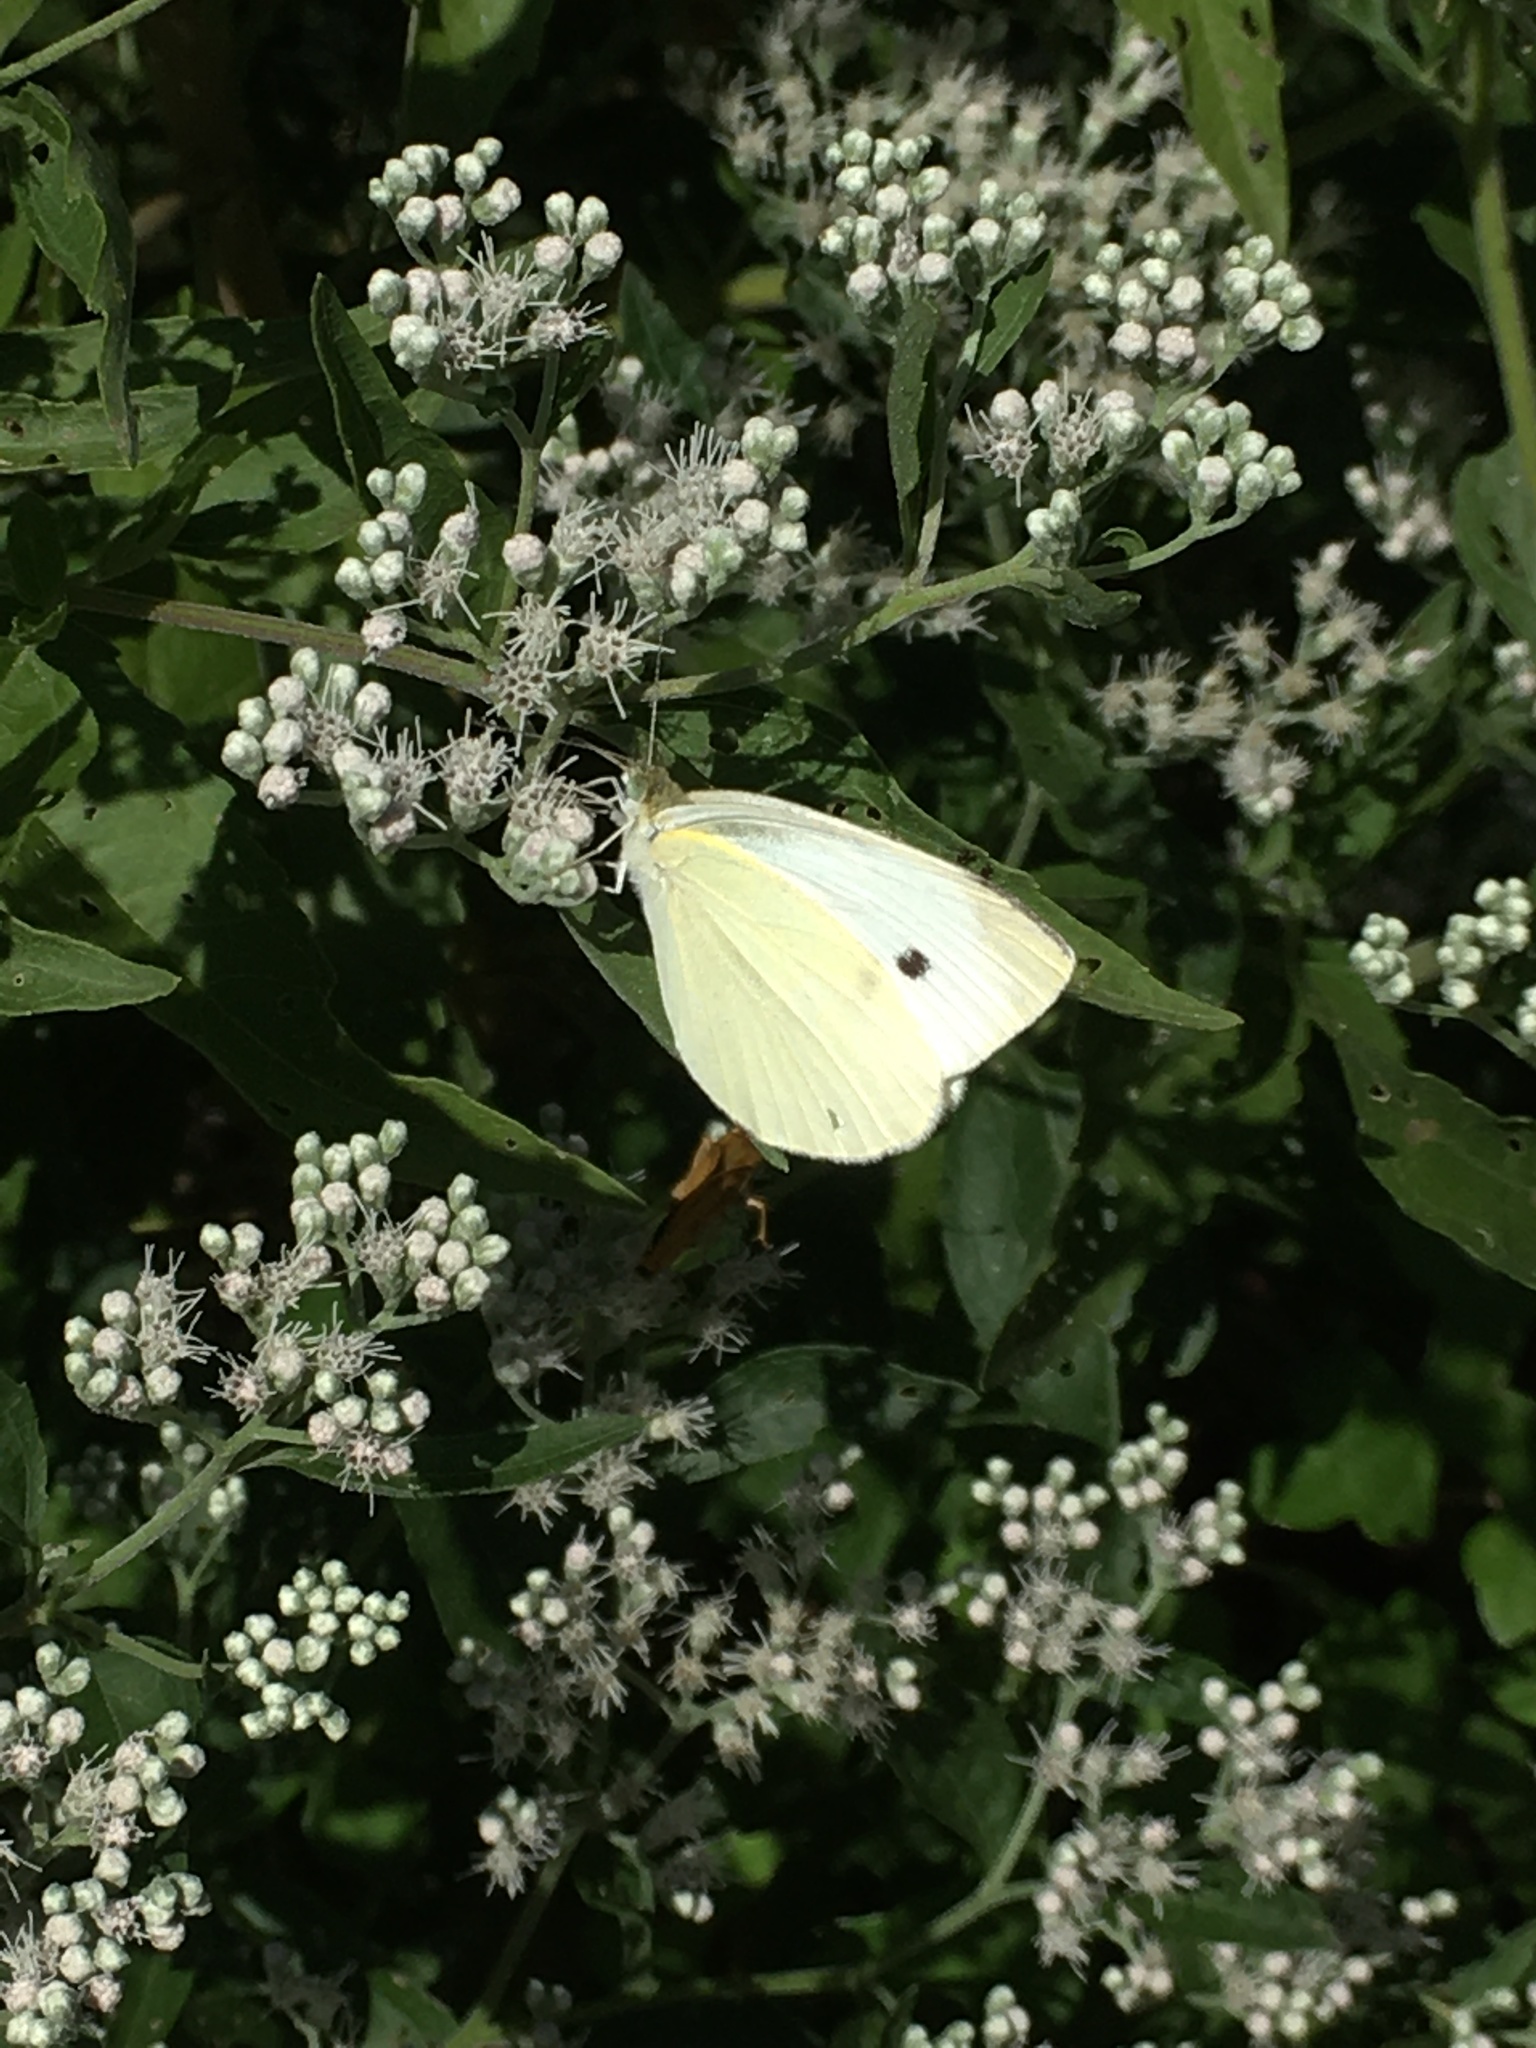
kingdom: Animalia
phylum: Arthropoda
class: Insecta
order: Lepidoptera
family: Pieridae
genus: Pieris
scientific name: Pieris rapae
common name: Small white
